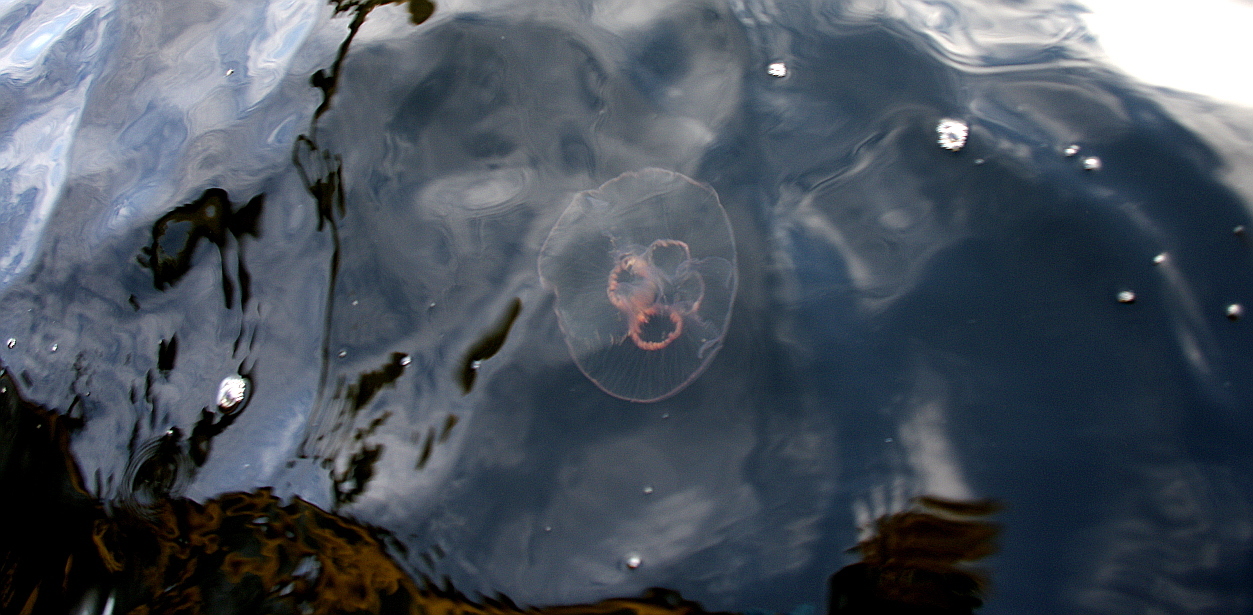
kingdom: Animalia
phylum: Cnidaria
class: Scyphozoa
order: Semaeostomeae
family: Ulmaridae
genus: Aurelia
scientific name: Aurelia aurita
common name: Moon jellyfish
